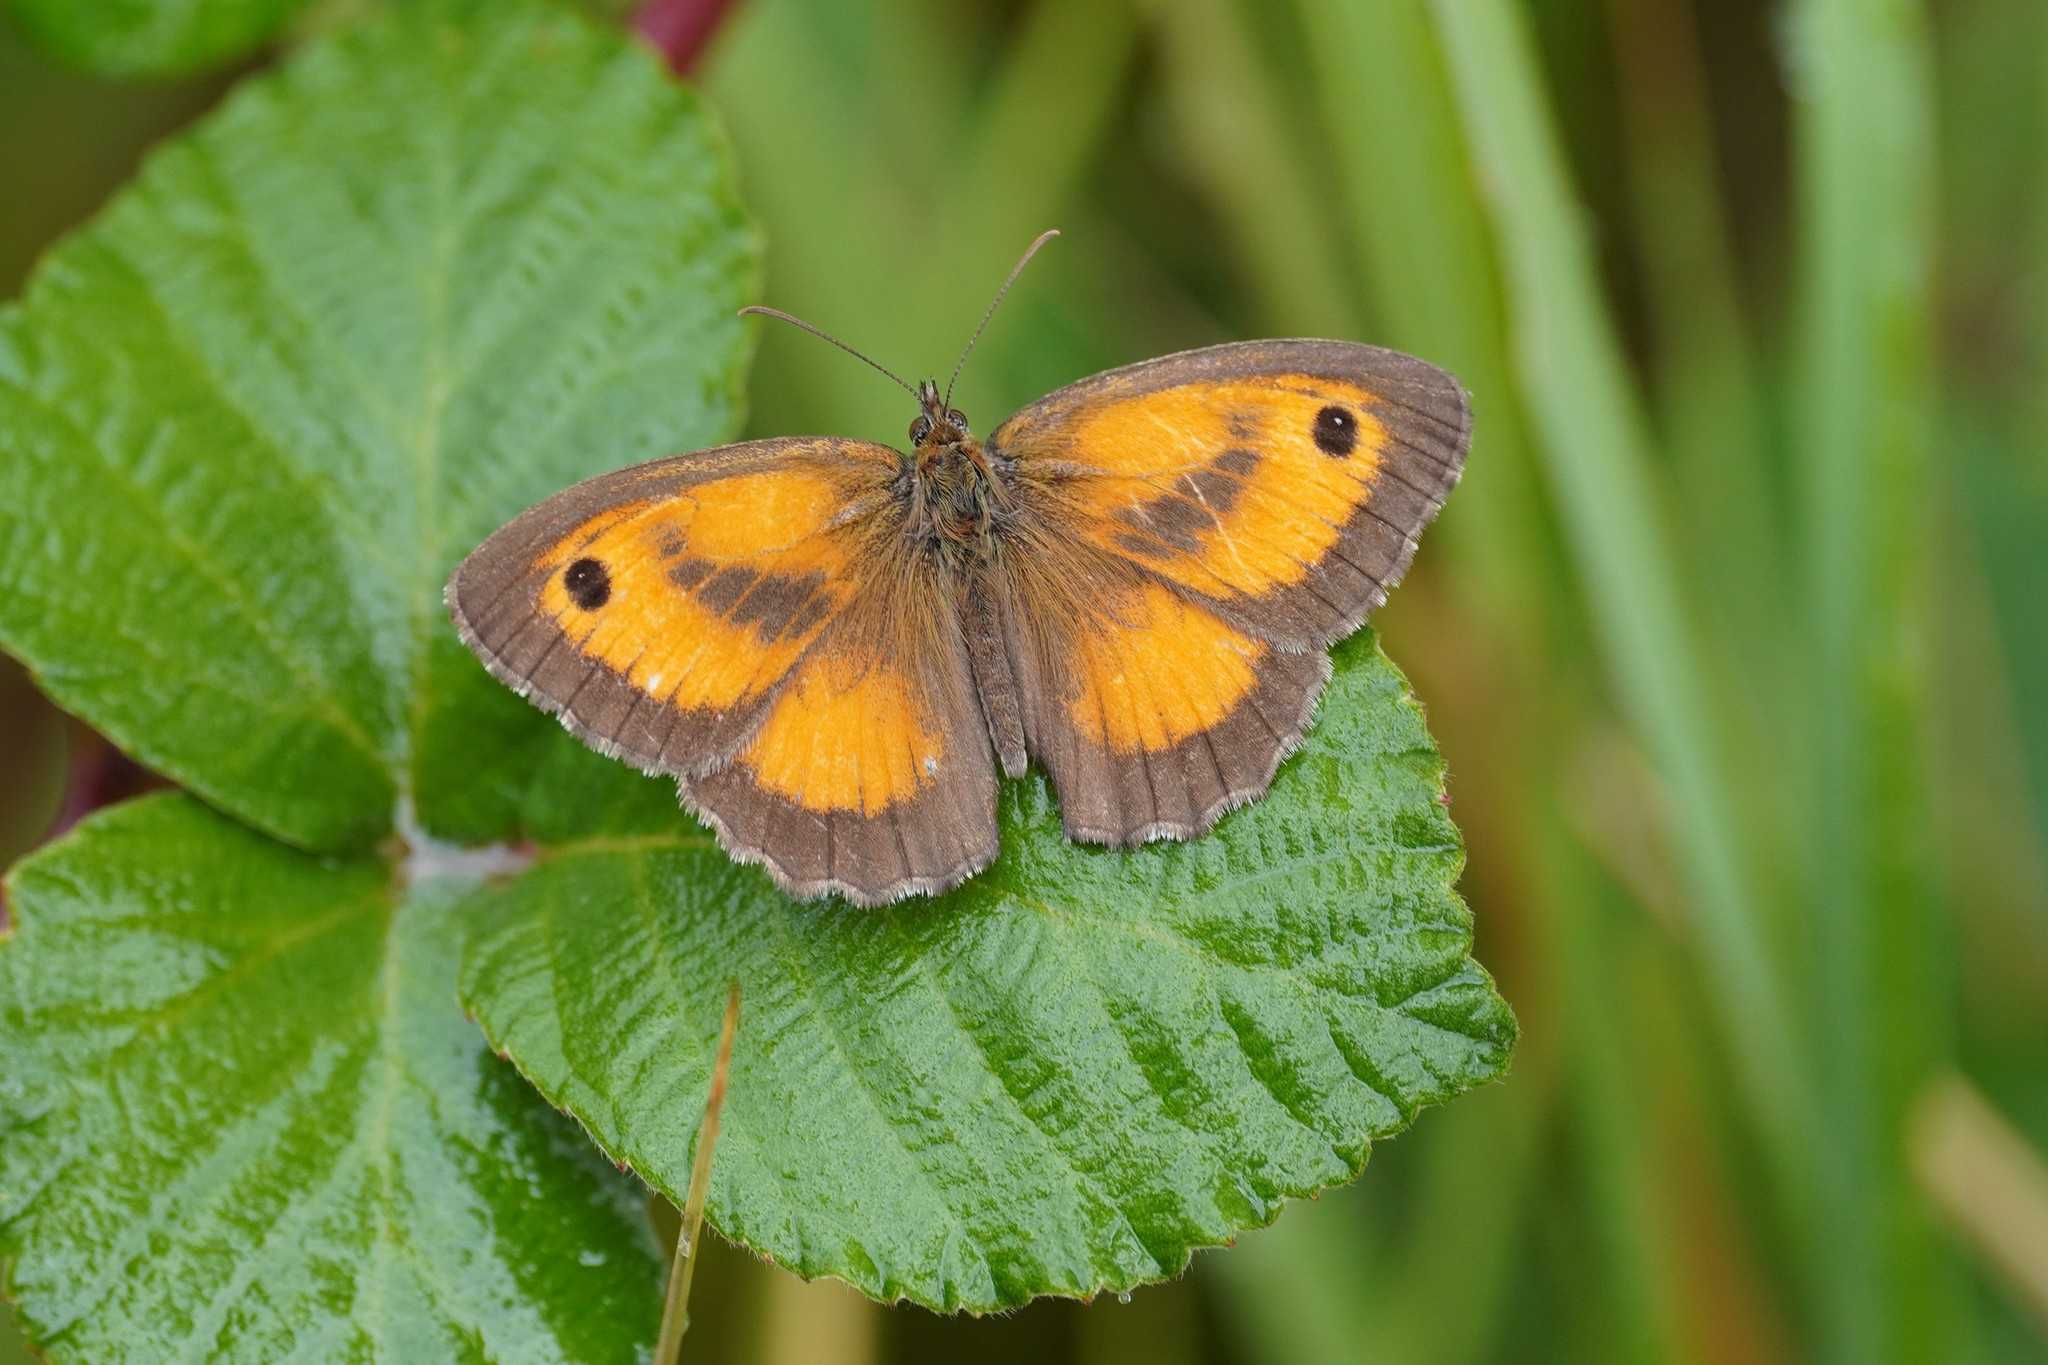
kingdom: Animalia
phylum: Arthropoda
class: Insecta
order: Lepidoptera
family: Nymphalidae
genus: Pyronia
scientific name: Pyronia tithonus
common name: Gatekeeper
